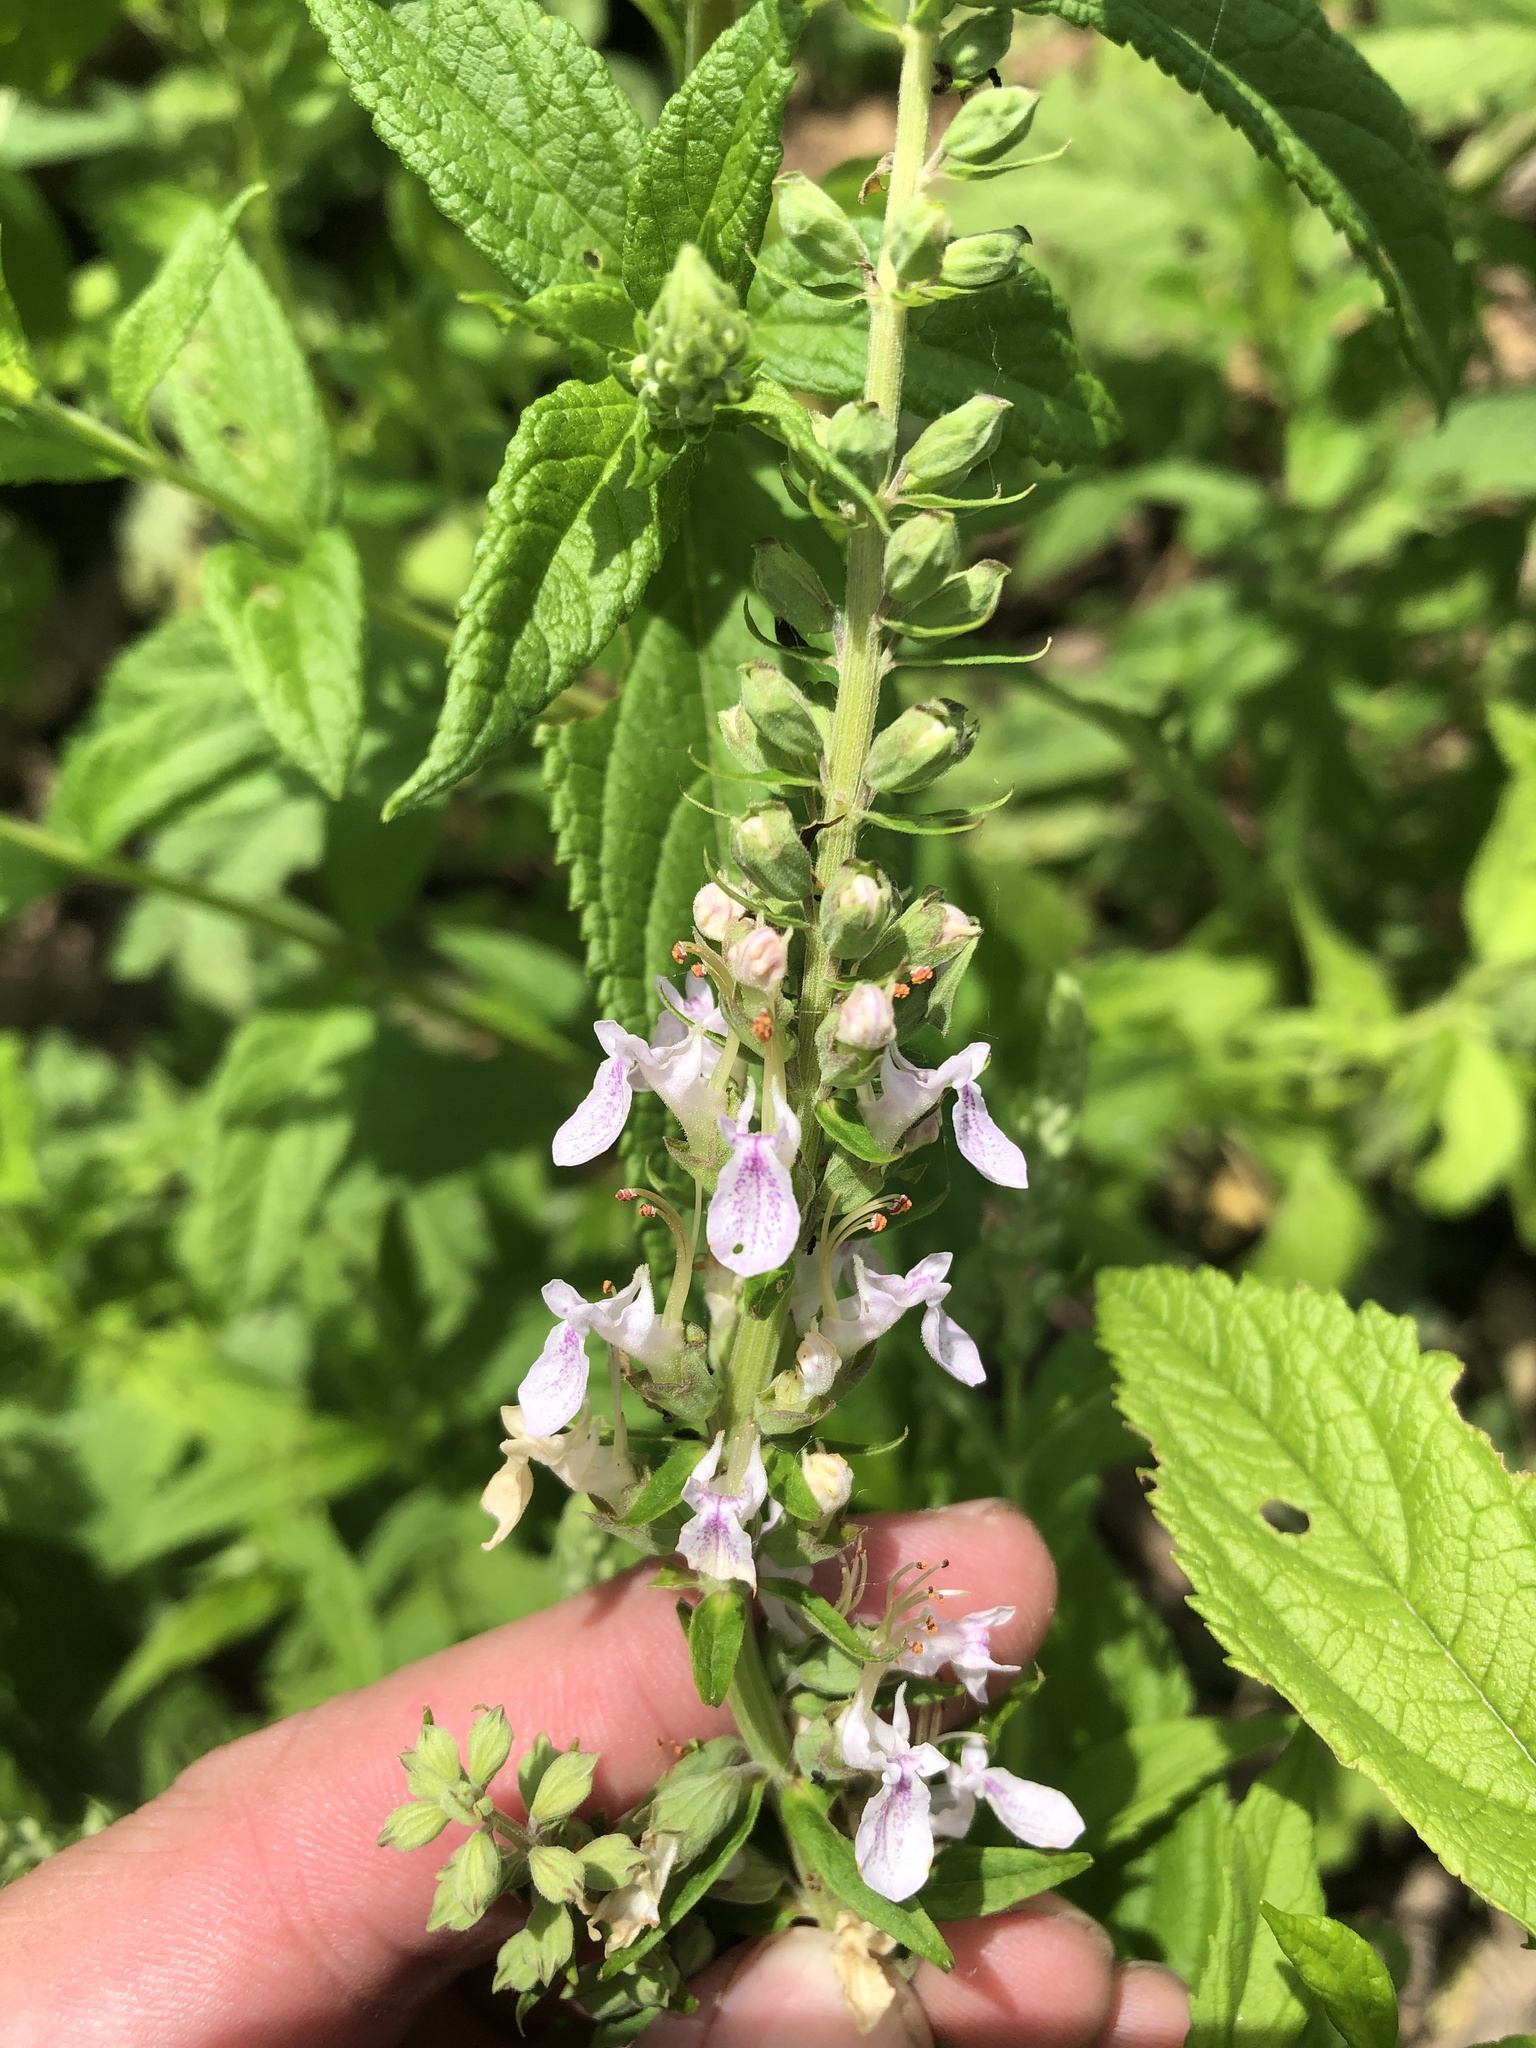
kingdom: Plantae
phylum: Tracheophyta
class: Magnoliopsida
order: Lamiales
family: Lamiaceae
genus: Teucrium
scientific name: Teucrium canadense
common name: American germander
